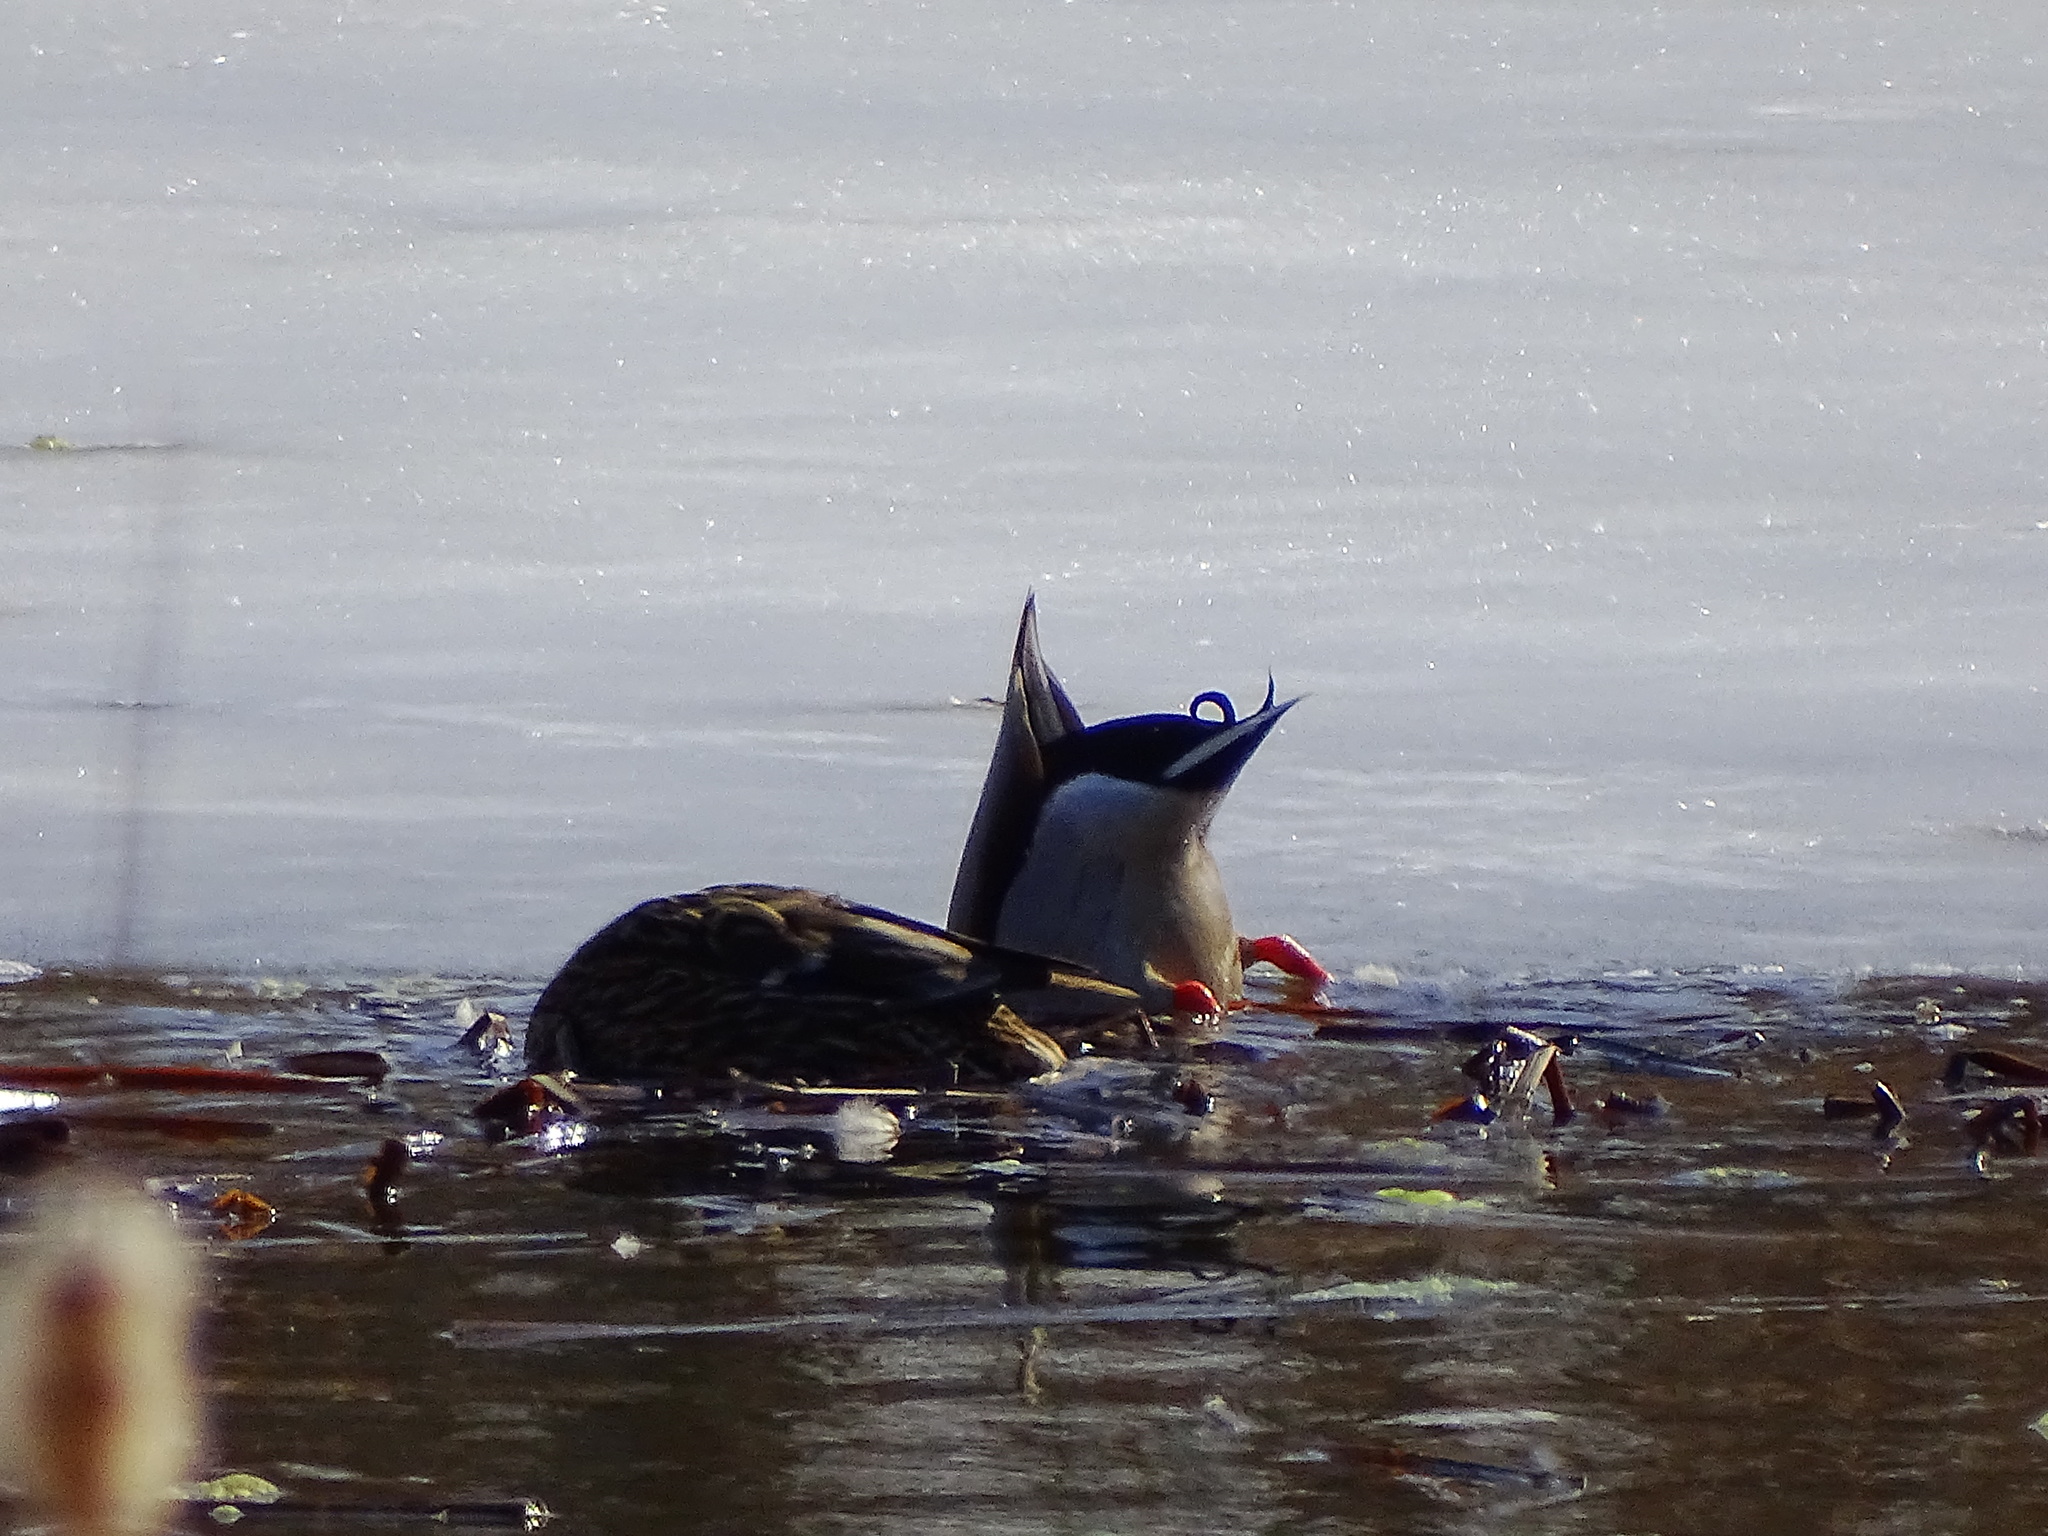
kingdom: Animalia
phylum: Chordata
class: Aves
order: Anseriformes
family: Anatidae
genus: Anas
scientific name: Anas platyrhynchos
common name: Mallard
